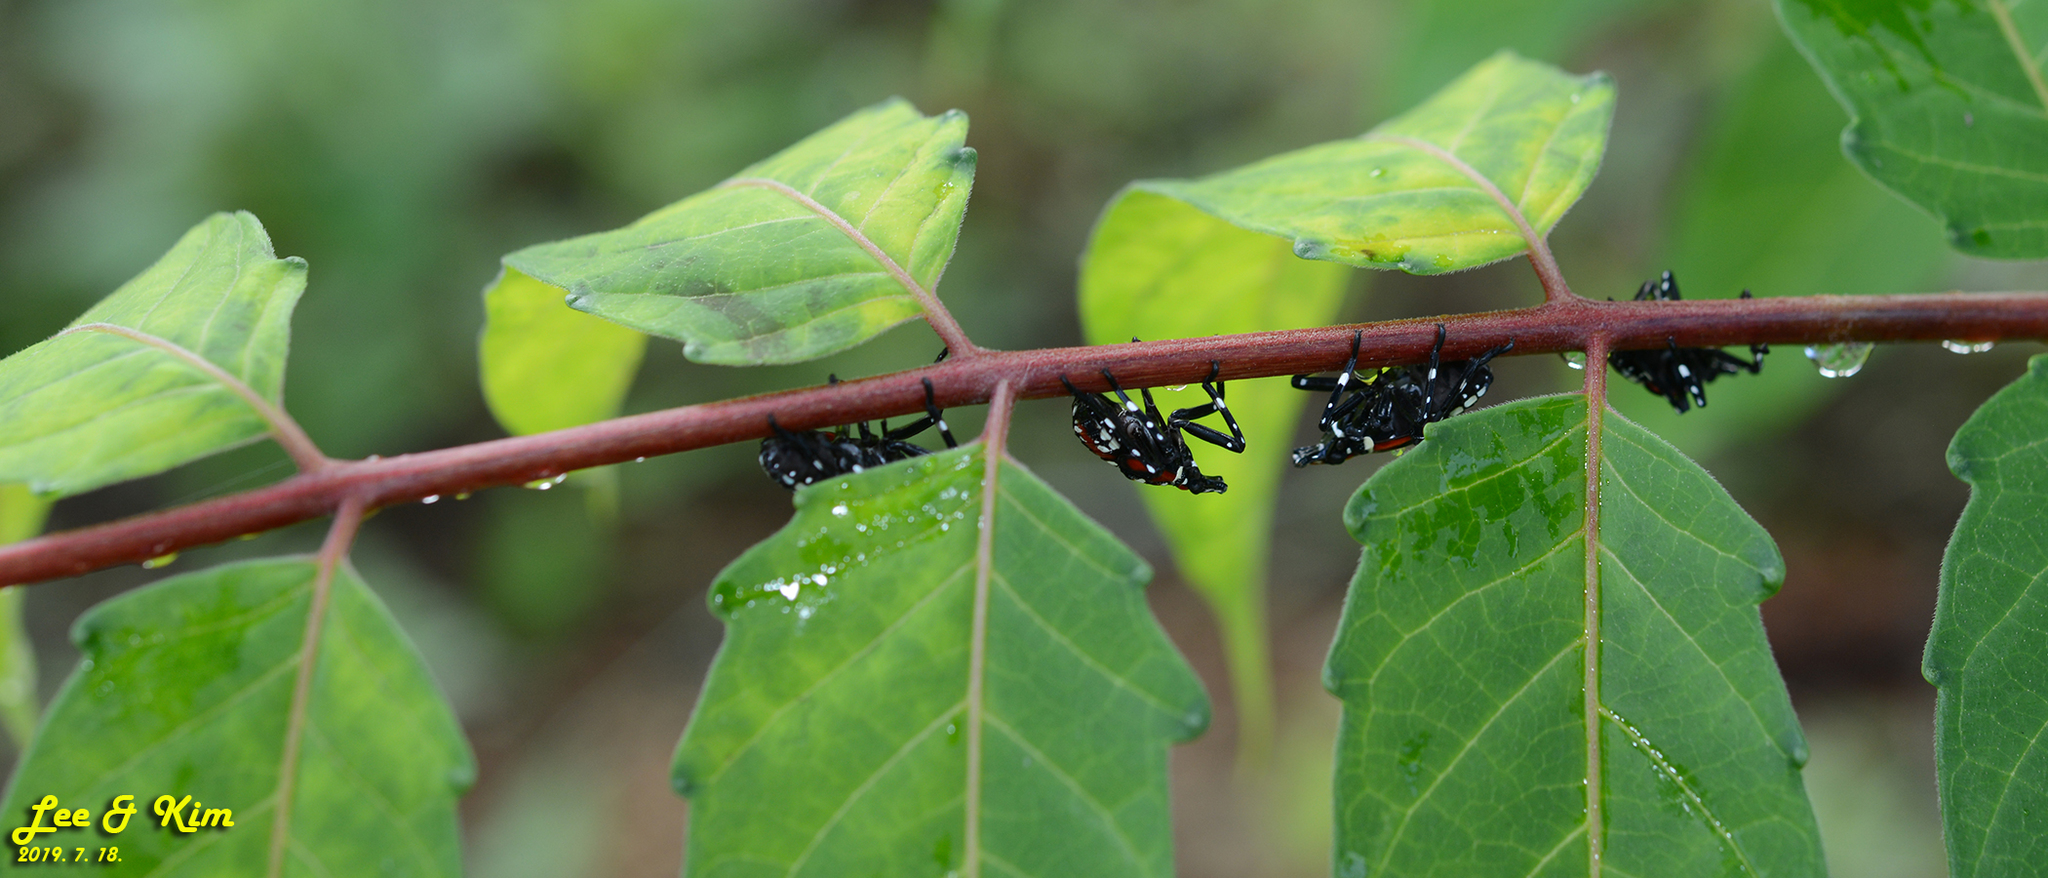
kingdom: Animalia
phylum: Arthropoda
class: Insecta
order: Hemiptera
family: Fulgoridae
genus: Lycorma
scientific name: Lycorma delicatula
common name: Spotted lanternfly
